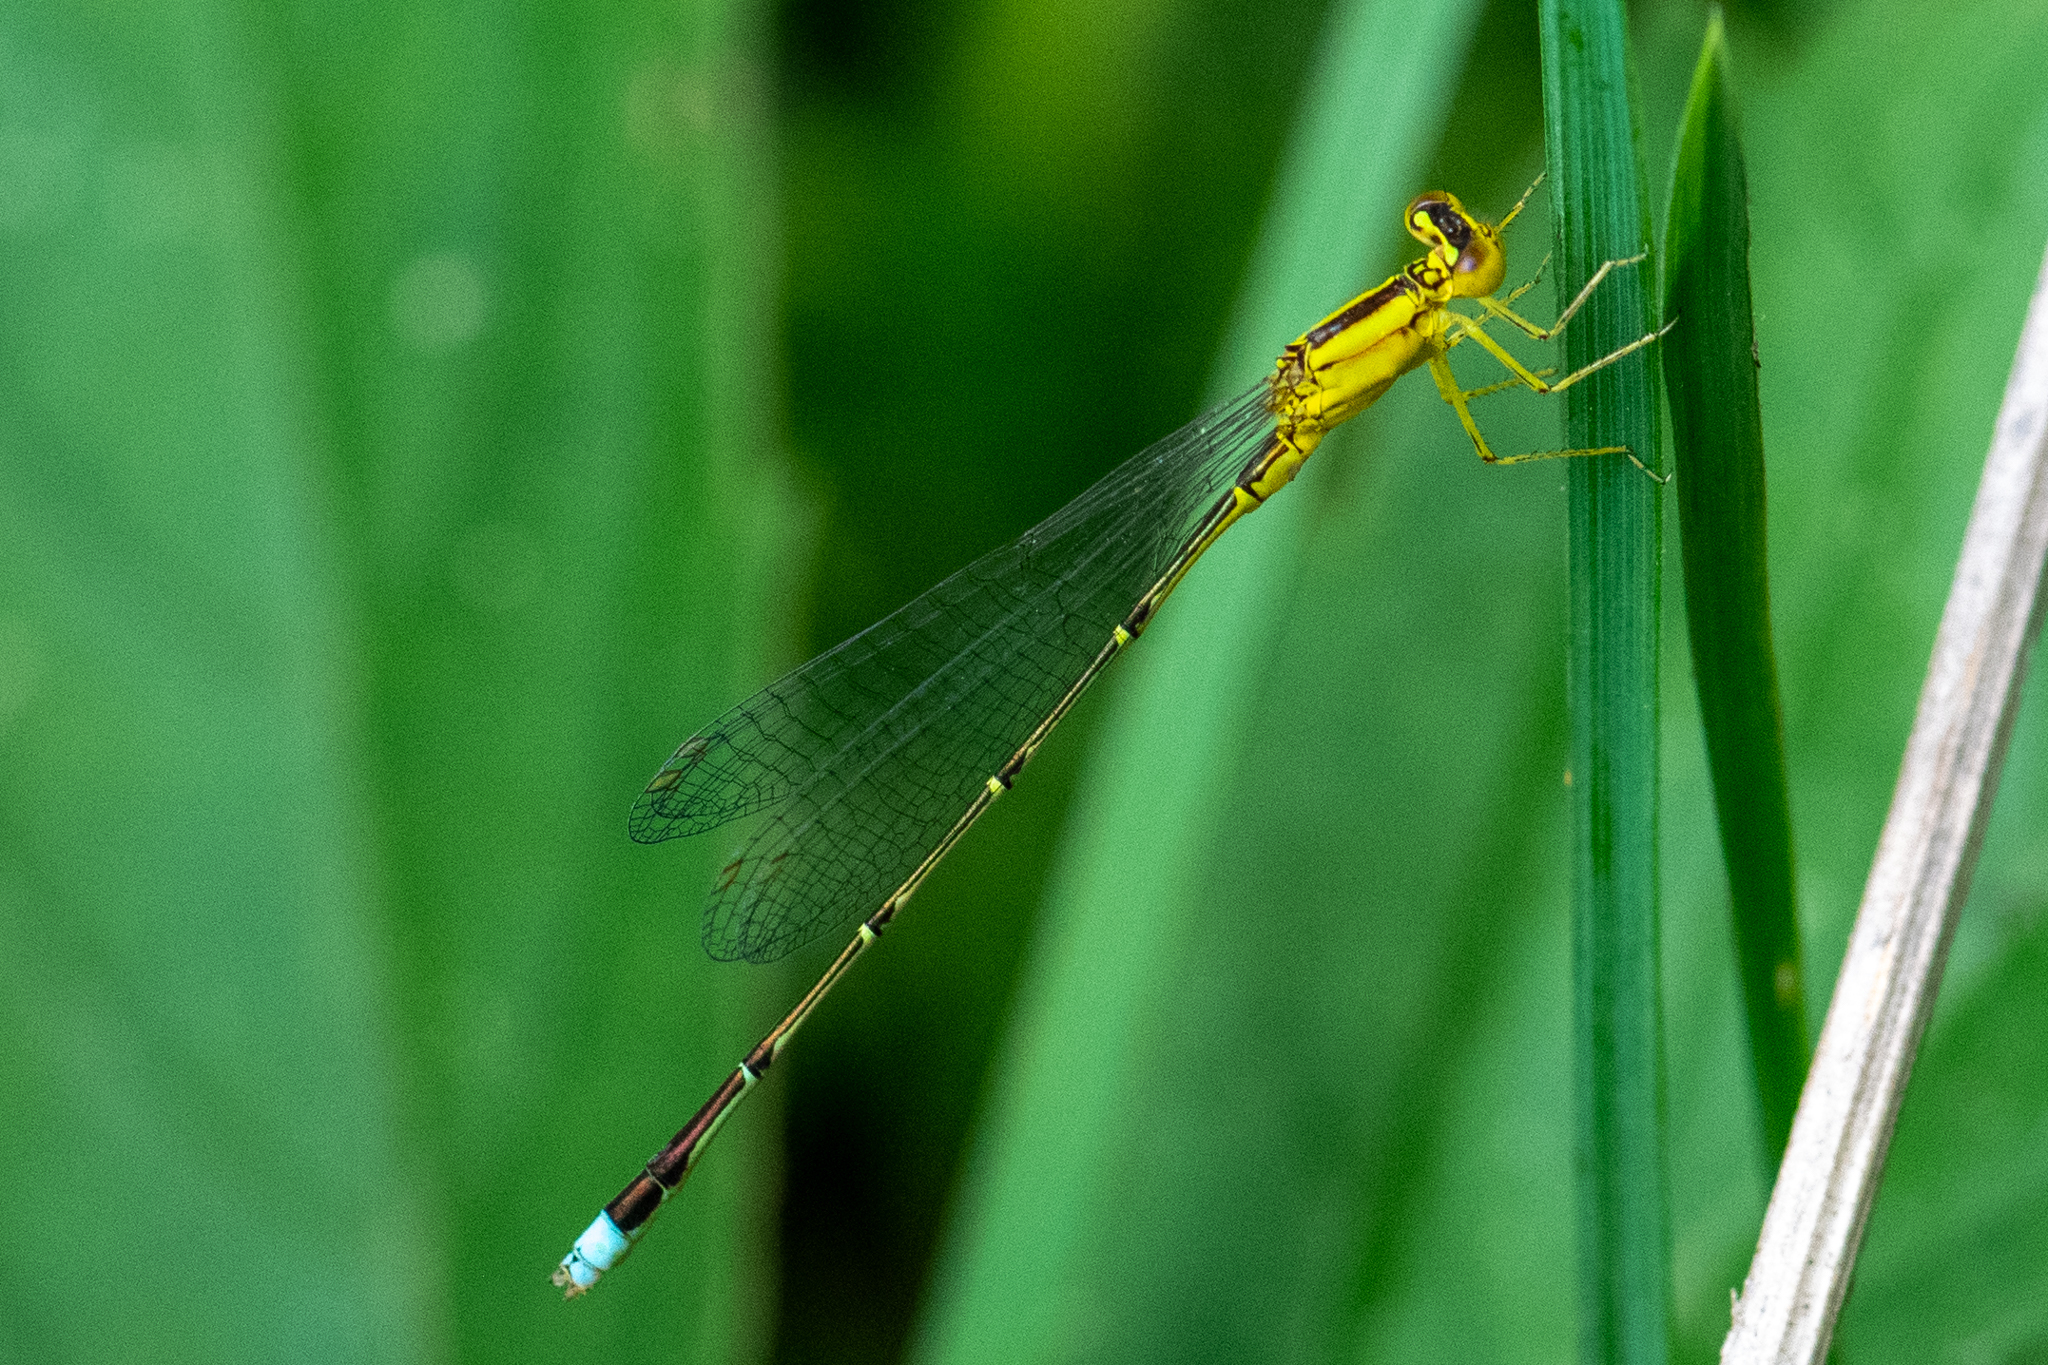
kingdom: Animalia
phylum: Arthropoda
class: Insecta
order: Odonata
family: Coenagrionidae
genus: Enallagma
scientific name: Enallagma vesperum
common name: Vesper bluet
